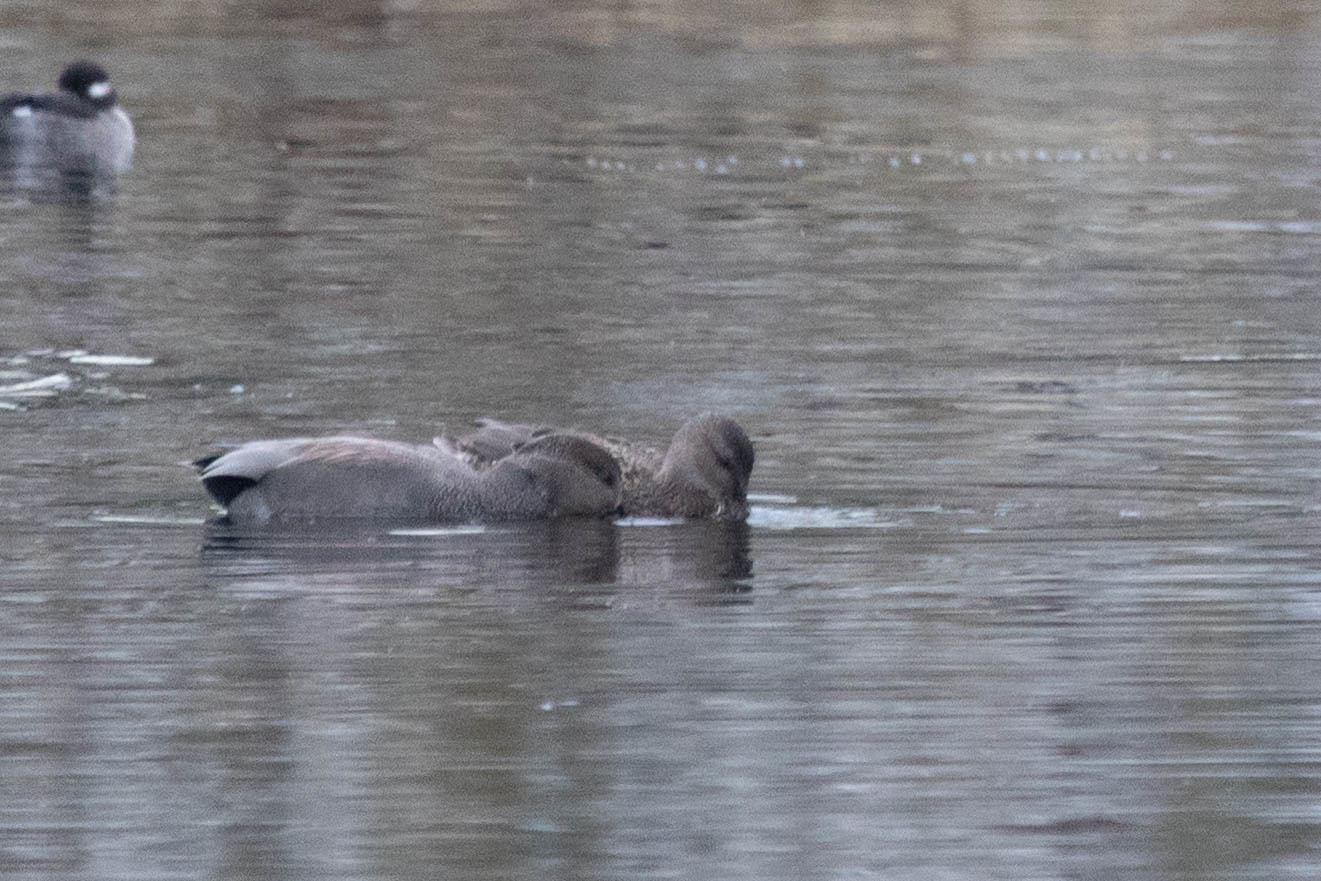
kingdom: Animalia
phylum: Chordata
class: Aves
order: Anseriformes
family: Anatidae
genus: Mareca
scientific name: Mareca strepera
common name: Gadwall
